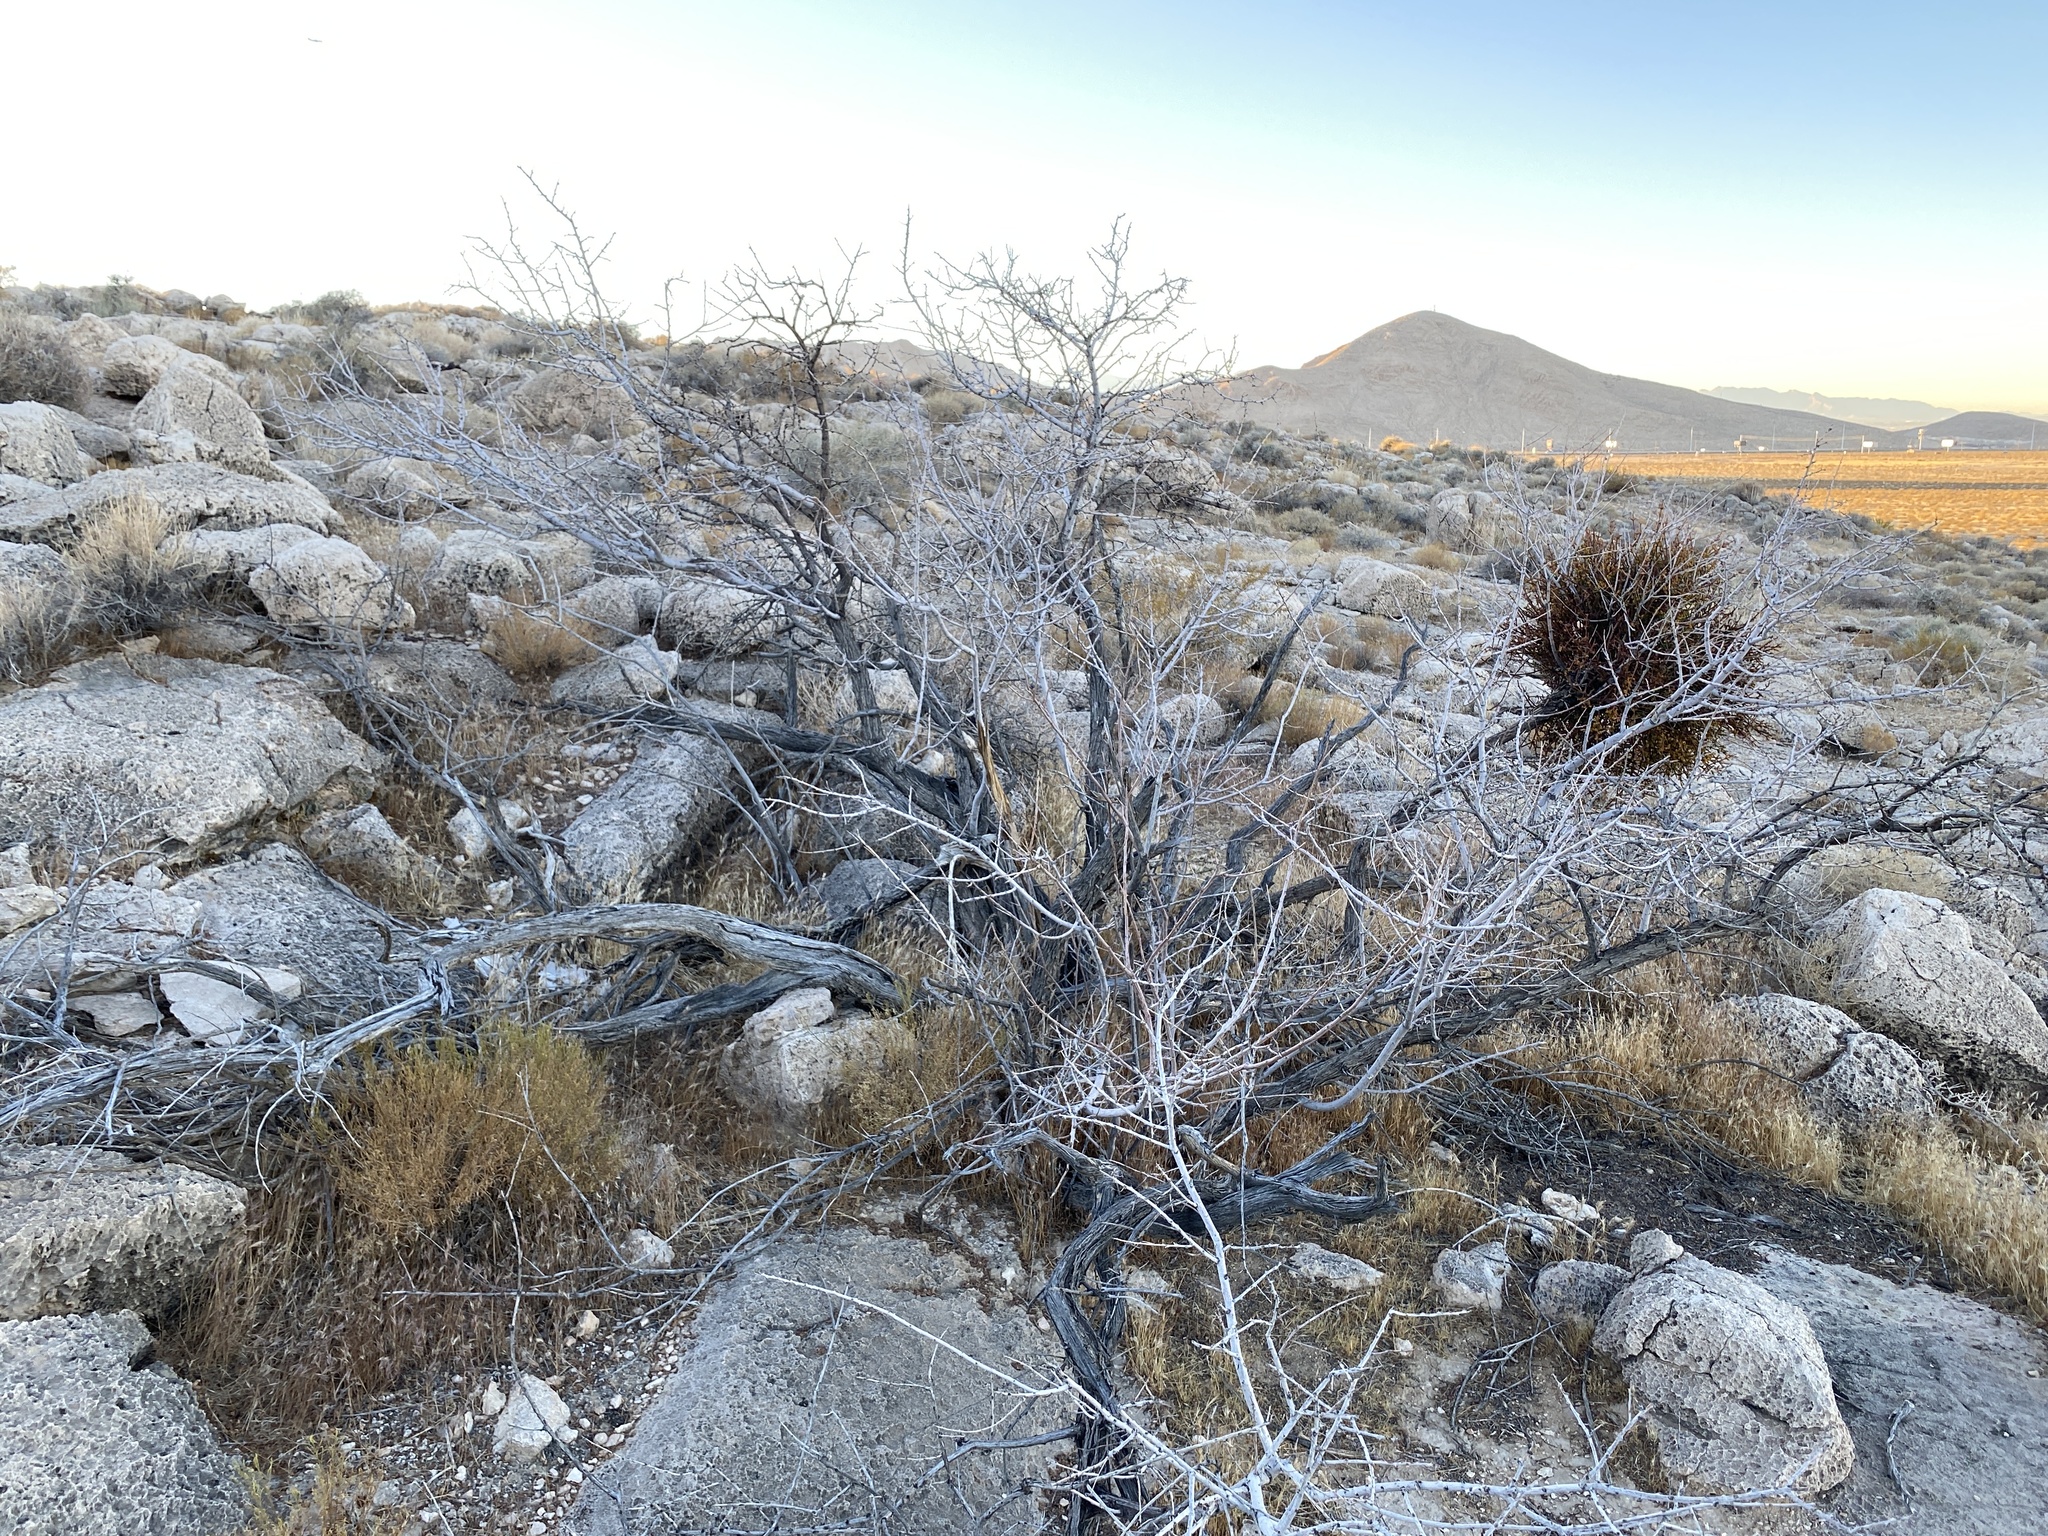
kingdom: Plantae
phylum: Tracheophyta
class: Magnoliopsida
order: Fabales
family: Fabaceae
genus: Senegalia
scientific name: Senegalia greggii
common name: Texas-mimosa
